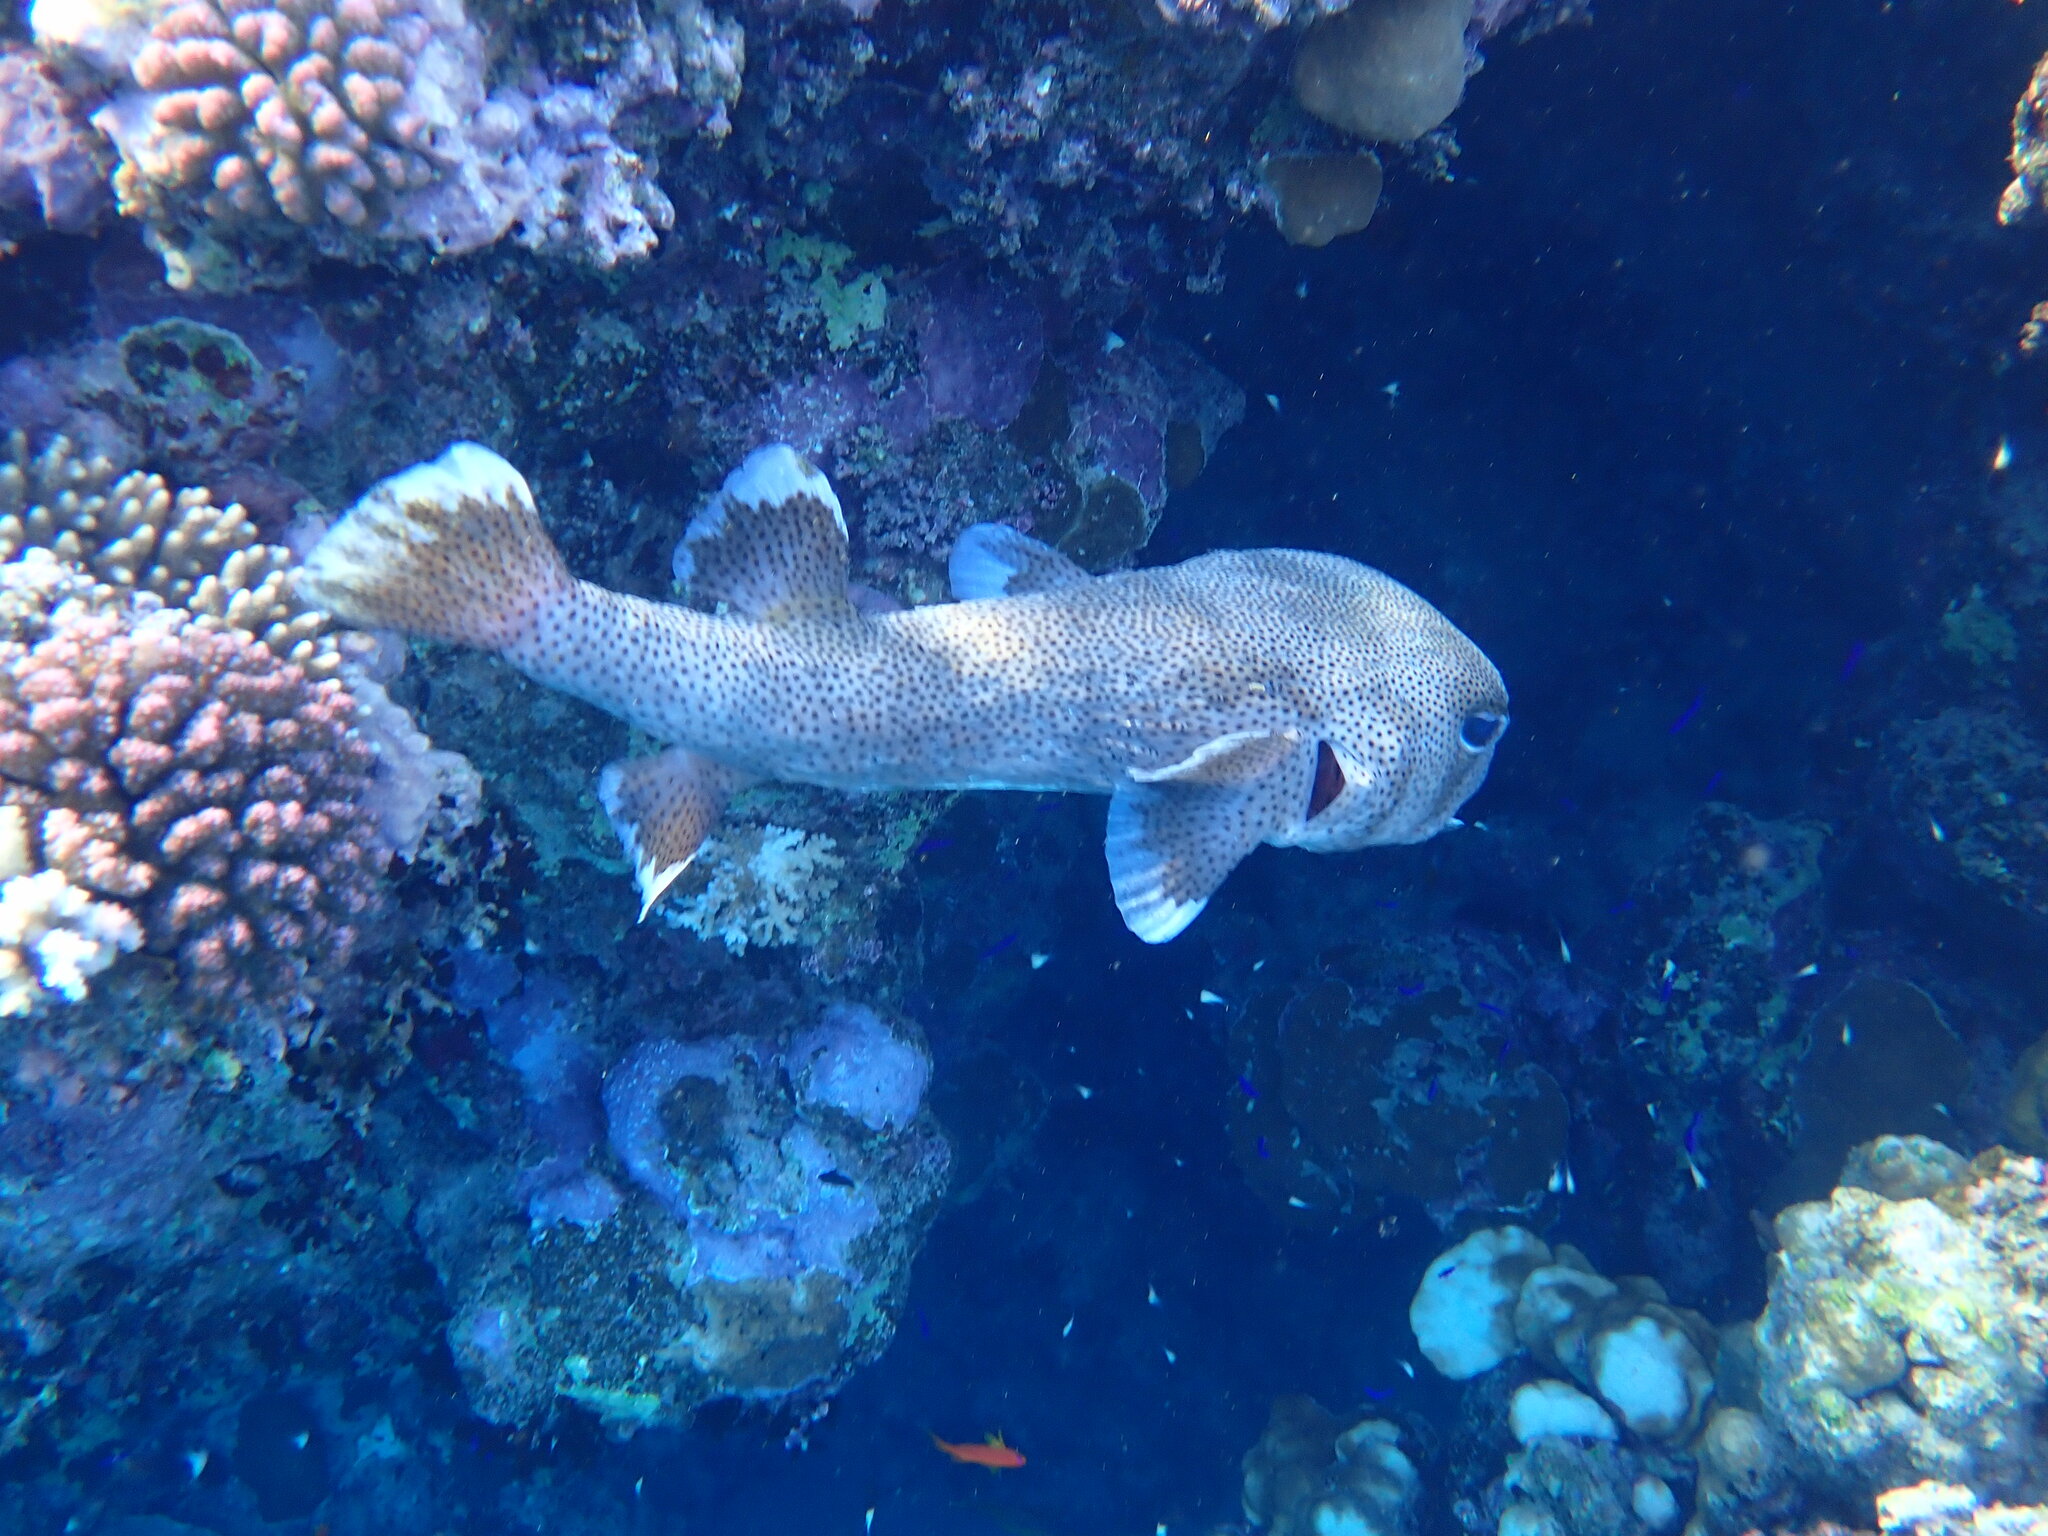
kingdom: Animalia
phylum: Chordata
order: Tetraodontiformes
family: Diodontidae
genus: Diodon
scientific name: Diodon hystrix
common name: Giant porcupinefish
